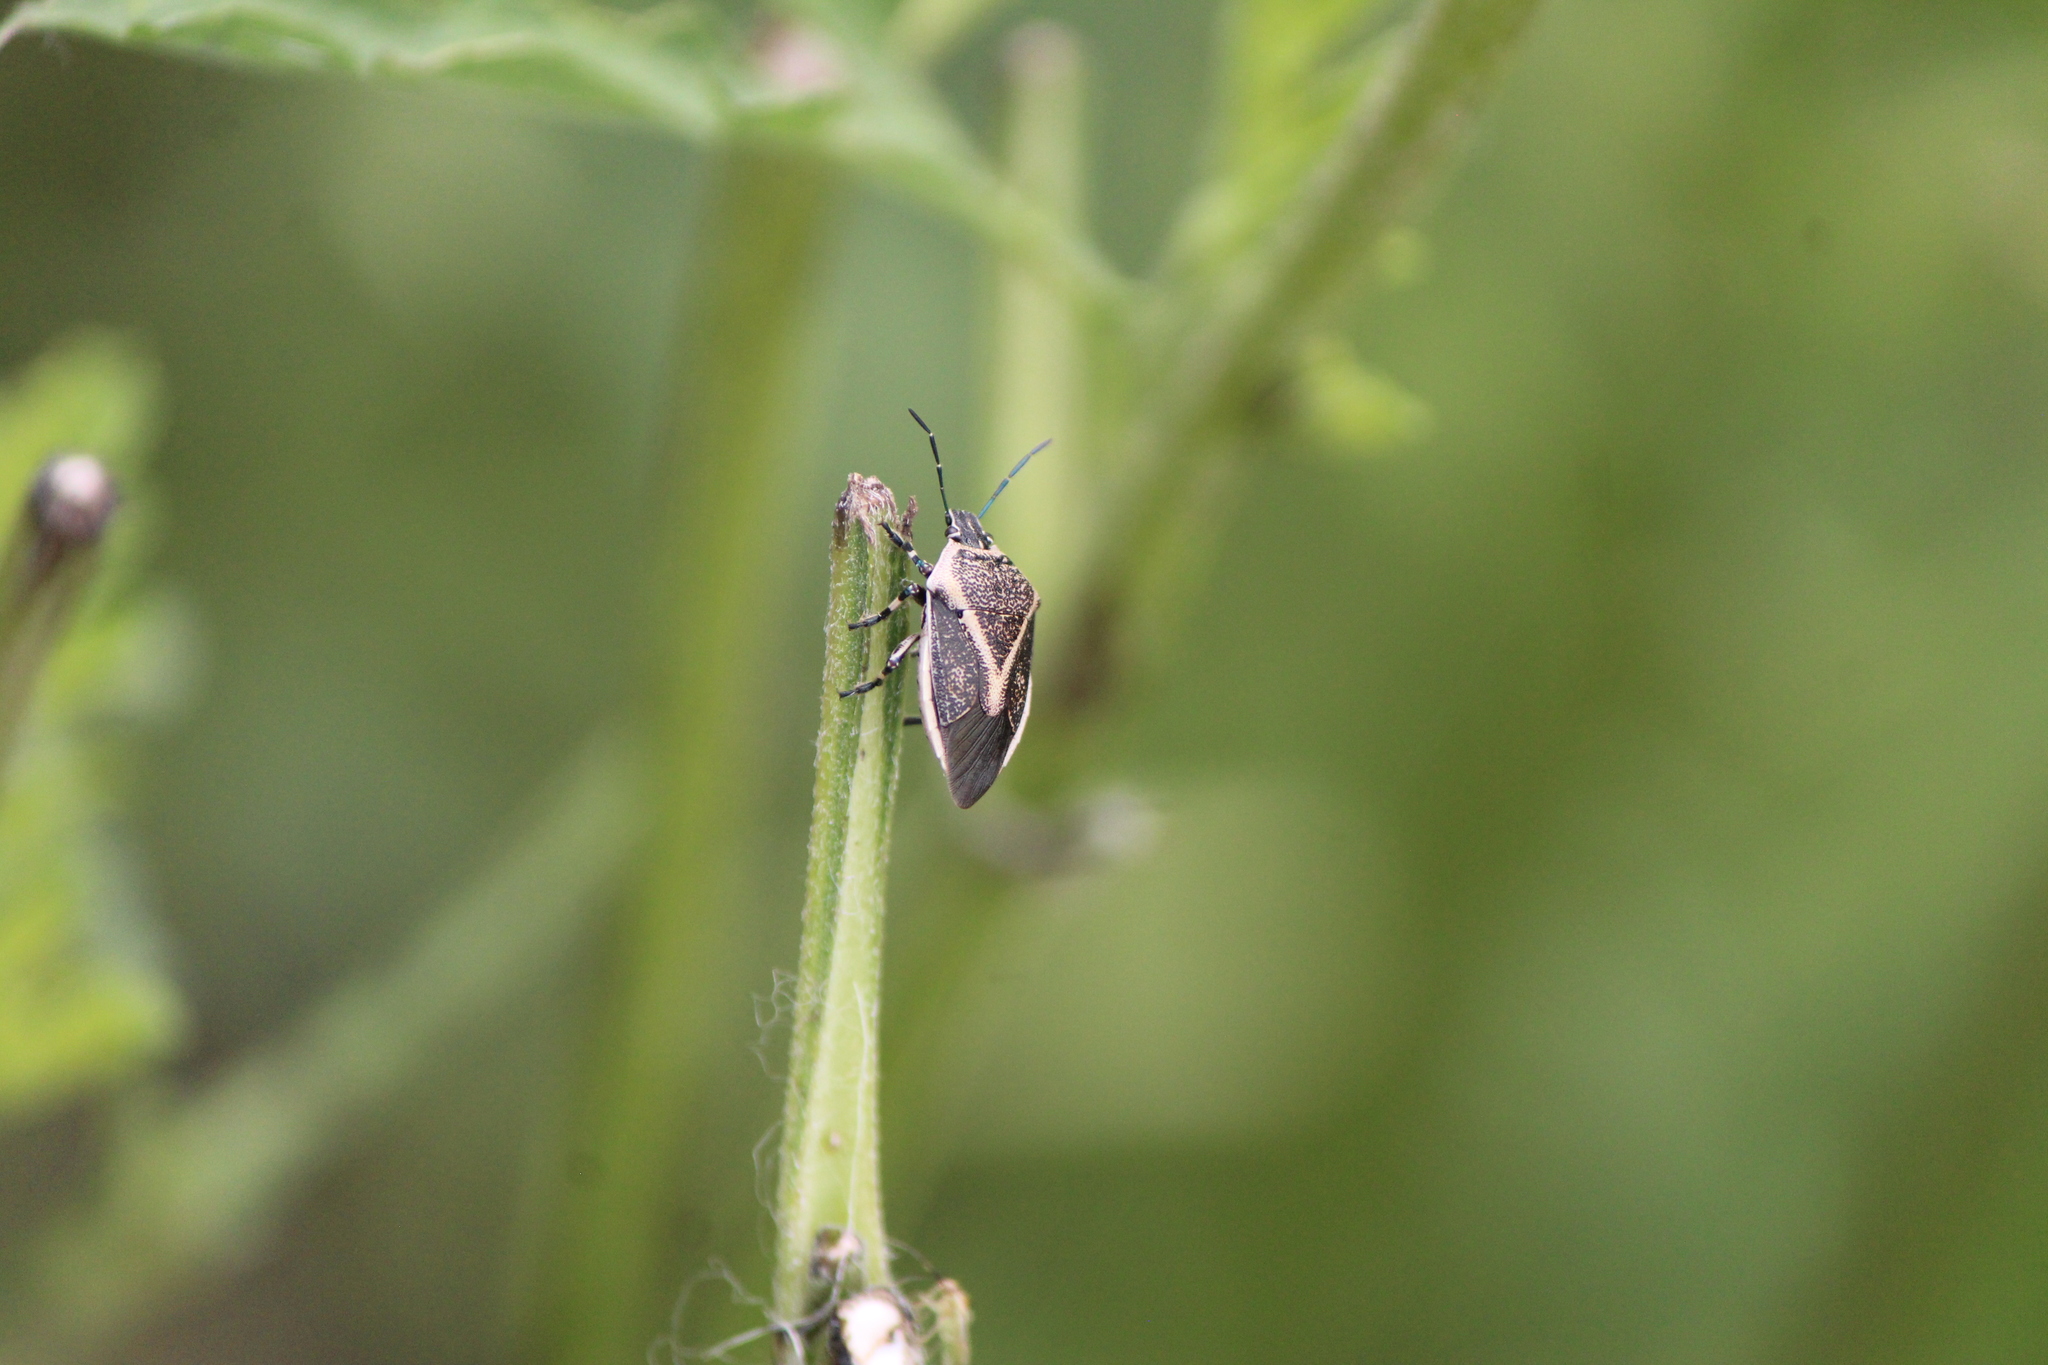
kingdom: Animalia
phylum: Arthropoda
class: Insecta
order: Hemiptera
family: Pentatomidae
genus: Perillus
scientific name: Perillus confluens
